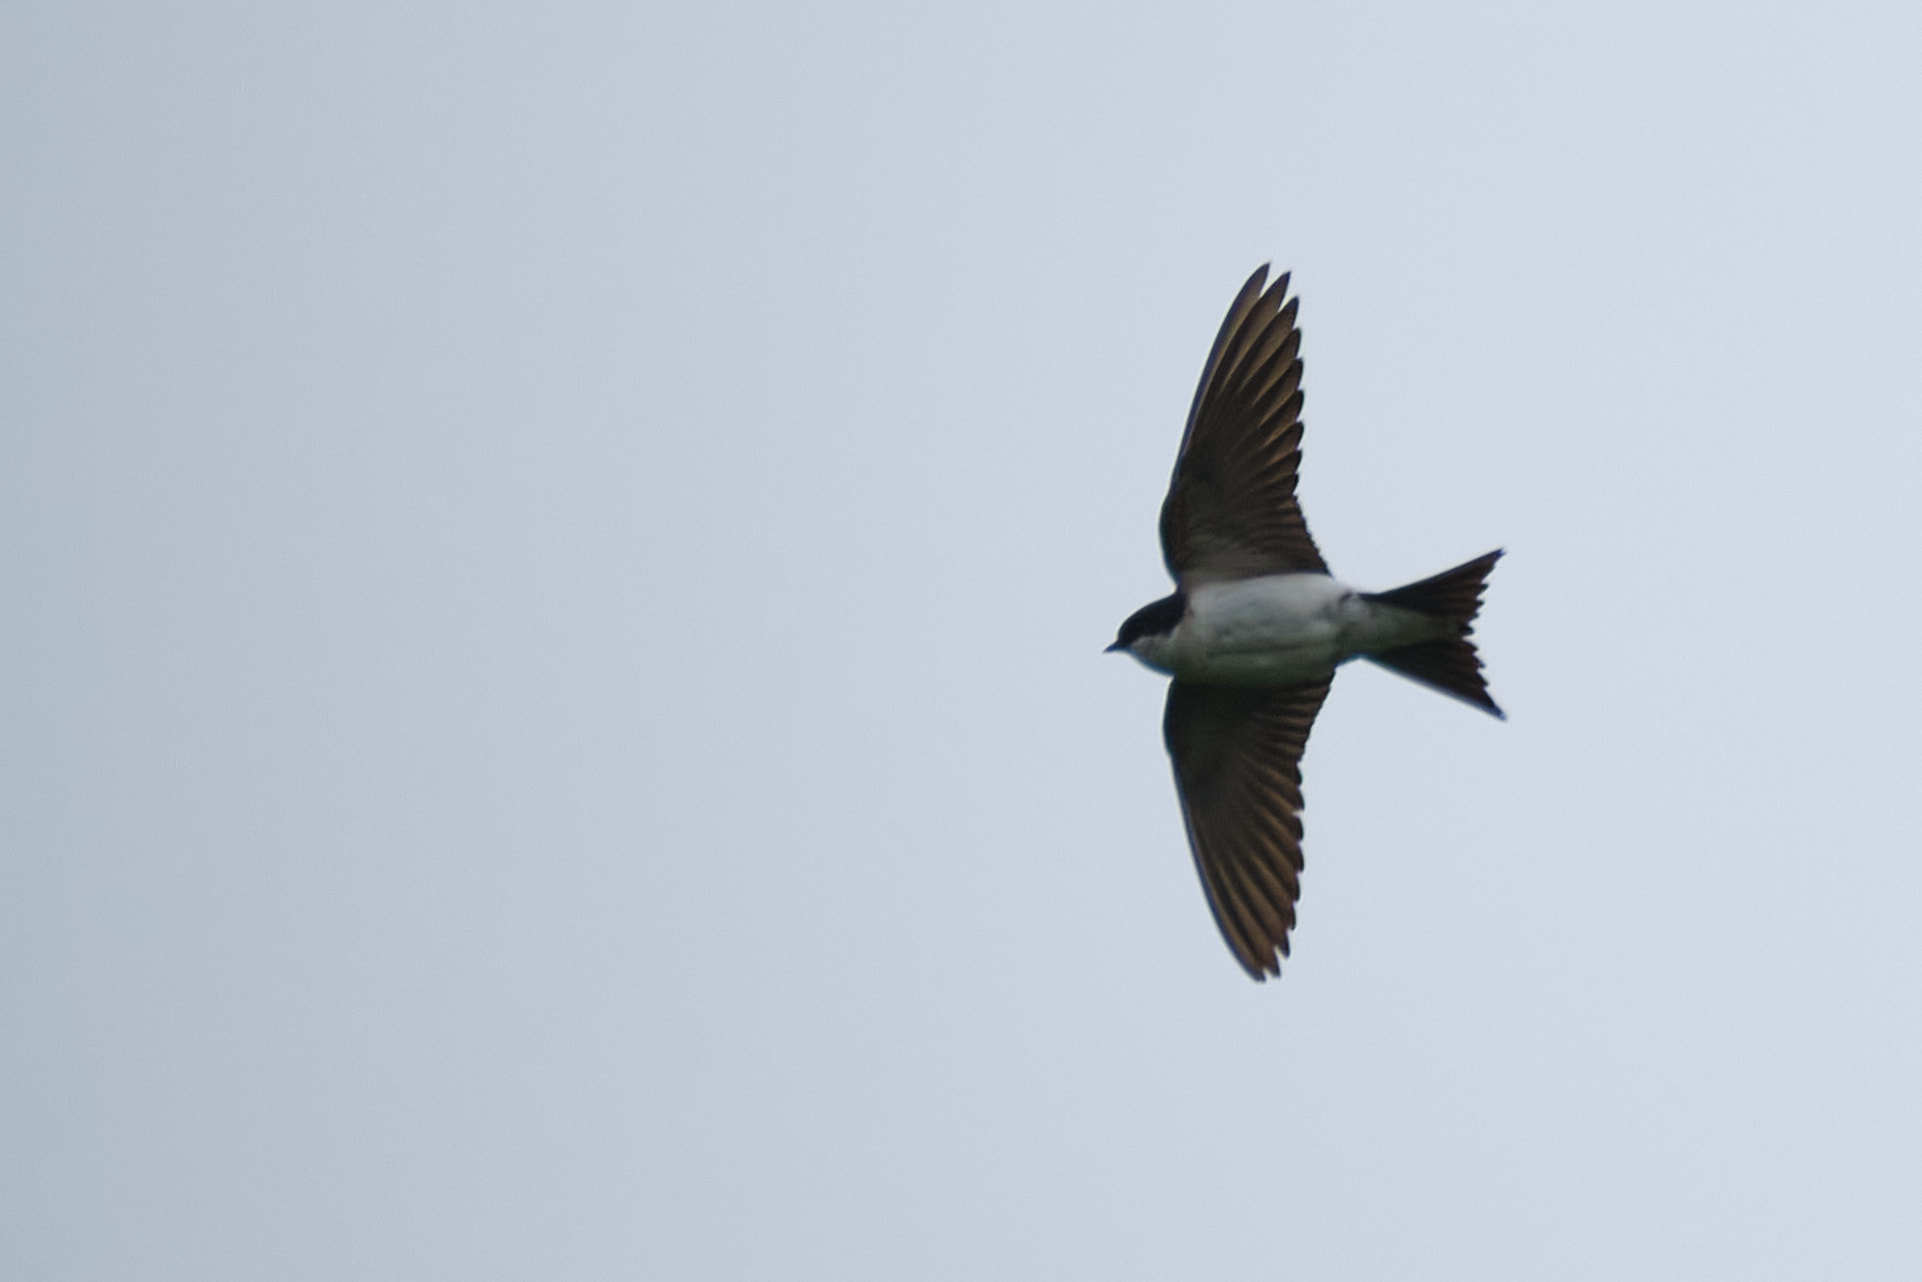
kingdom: Animalia
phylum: Chordata
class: Aves
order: Passeriformes
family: Hirundinidae
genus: Delichon
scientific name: Delichon urbicum
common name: Common house martin
